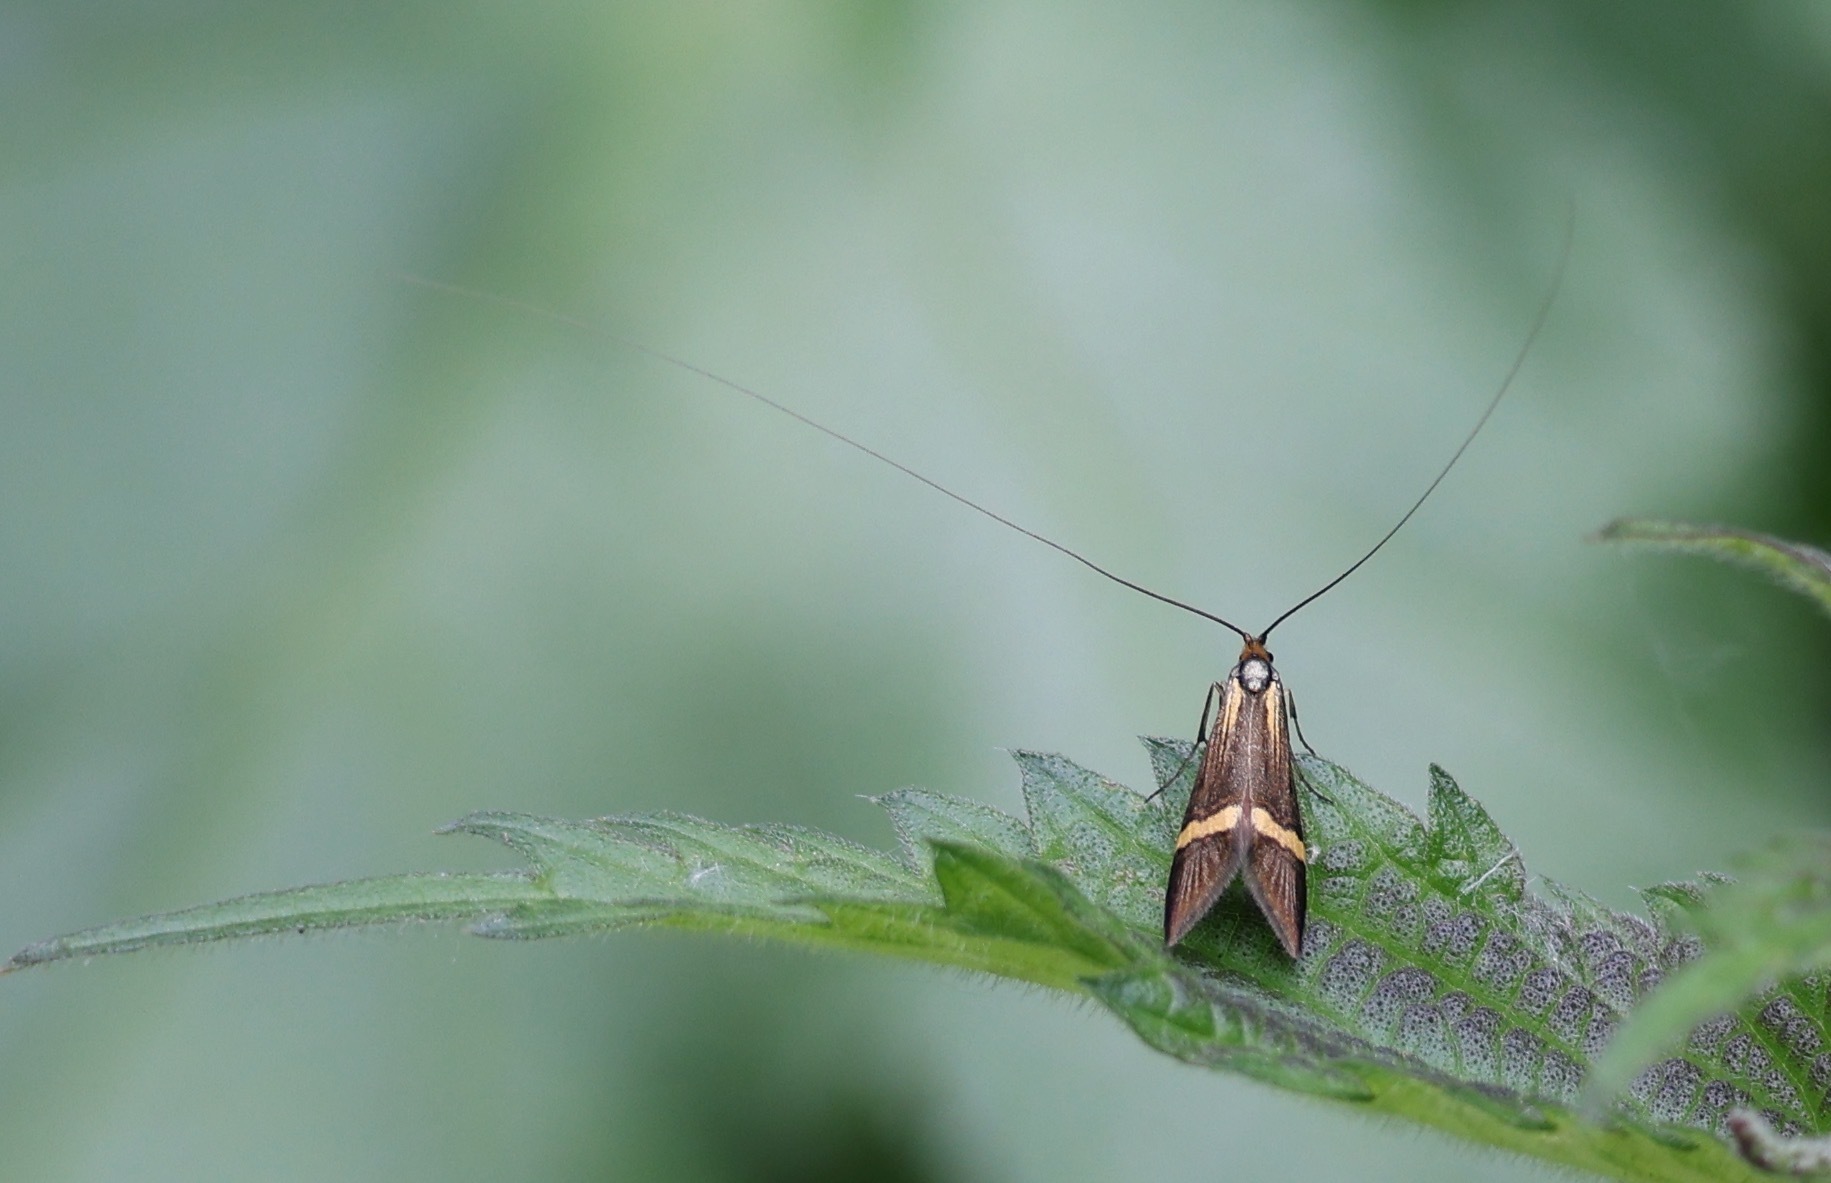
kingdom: Animalia
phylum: Arthropoda
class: Insecta
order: Lepidoptera
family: Adelidae
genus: Nemophora
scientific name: Nemophora degeerella
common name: Yellow-barred long-horn
